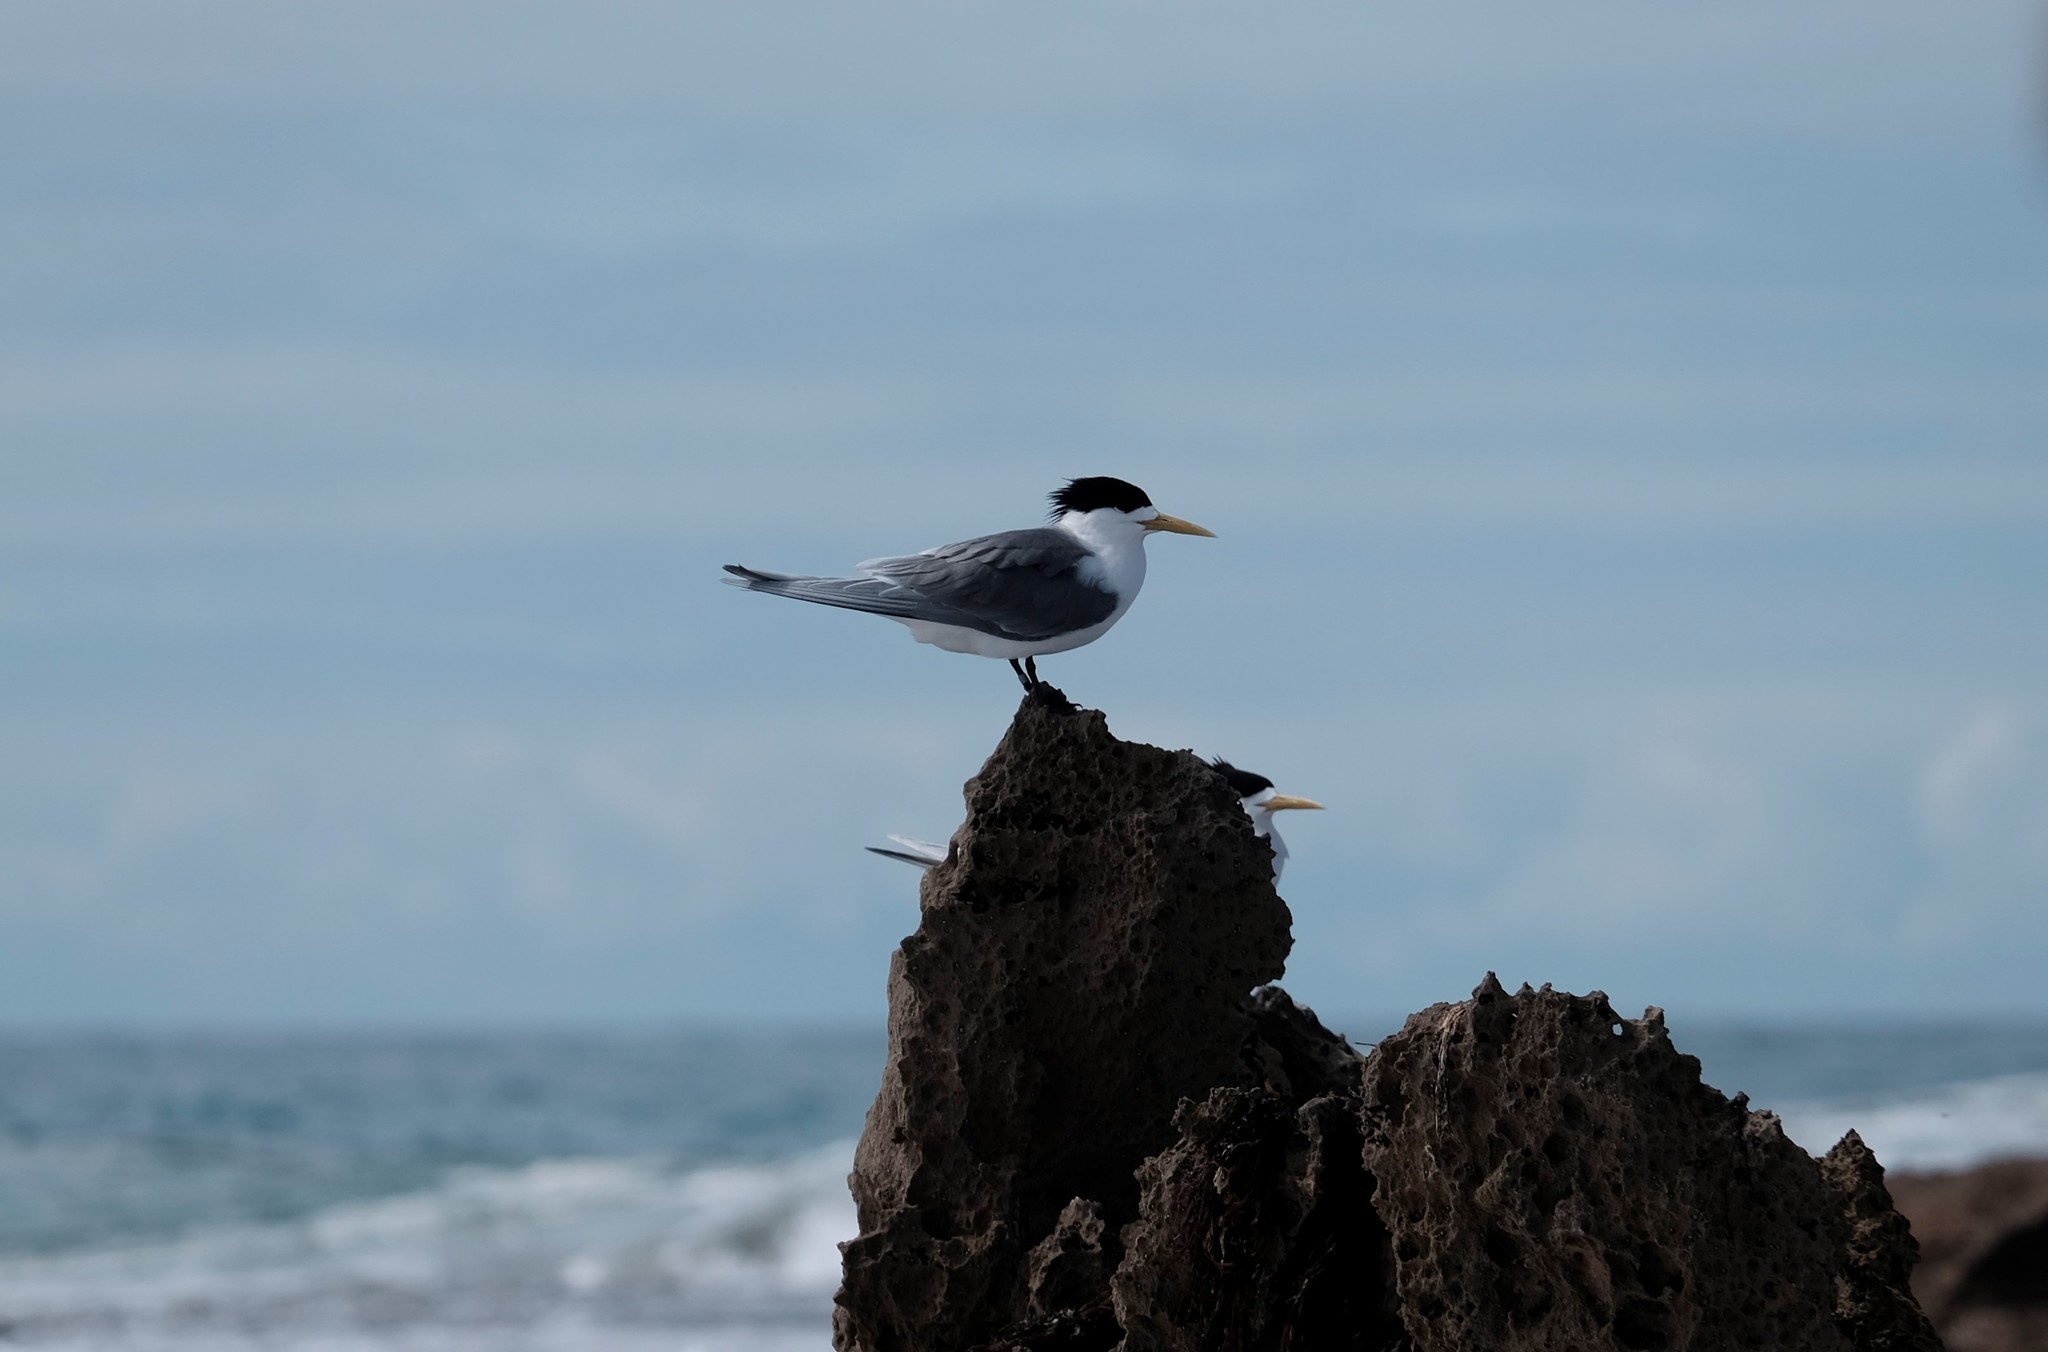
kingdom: Animalia
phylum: Chordata
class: Aves
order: Charadriiformes
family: Laridae
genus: Thalasseus
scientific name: Thalasseus bergii
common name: Greater crested tern
